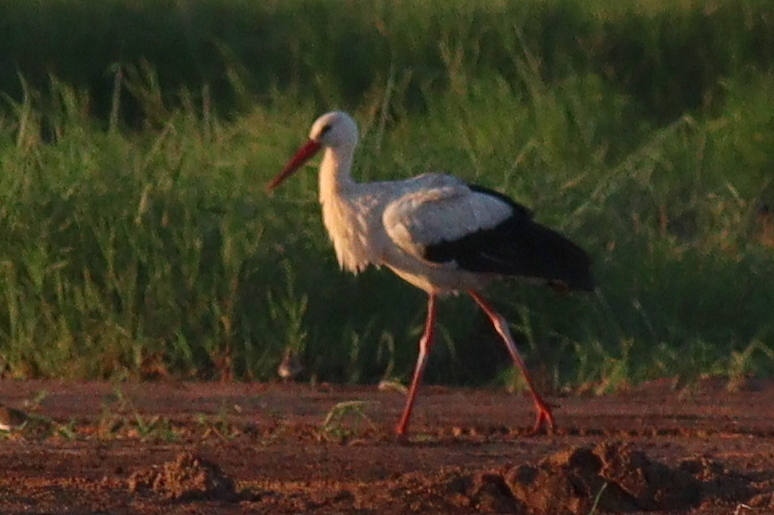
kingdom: Animalia
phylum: Chordata
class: Aves
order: Ciconiiformes
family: Ciconiidae
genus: Ciconia
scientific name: Ciconia ciconia
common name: White stork
